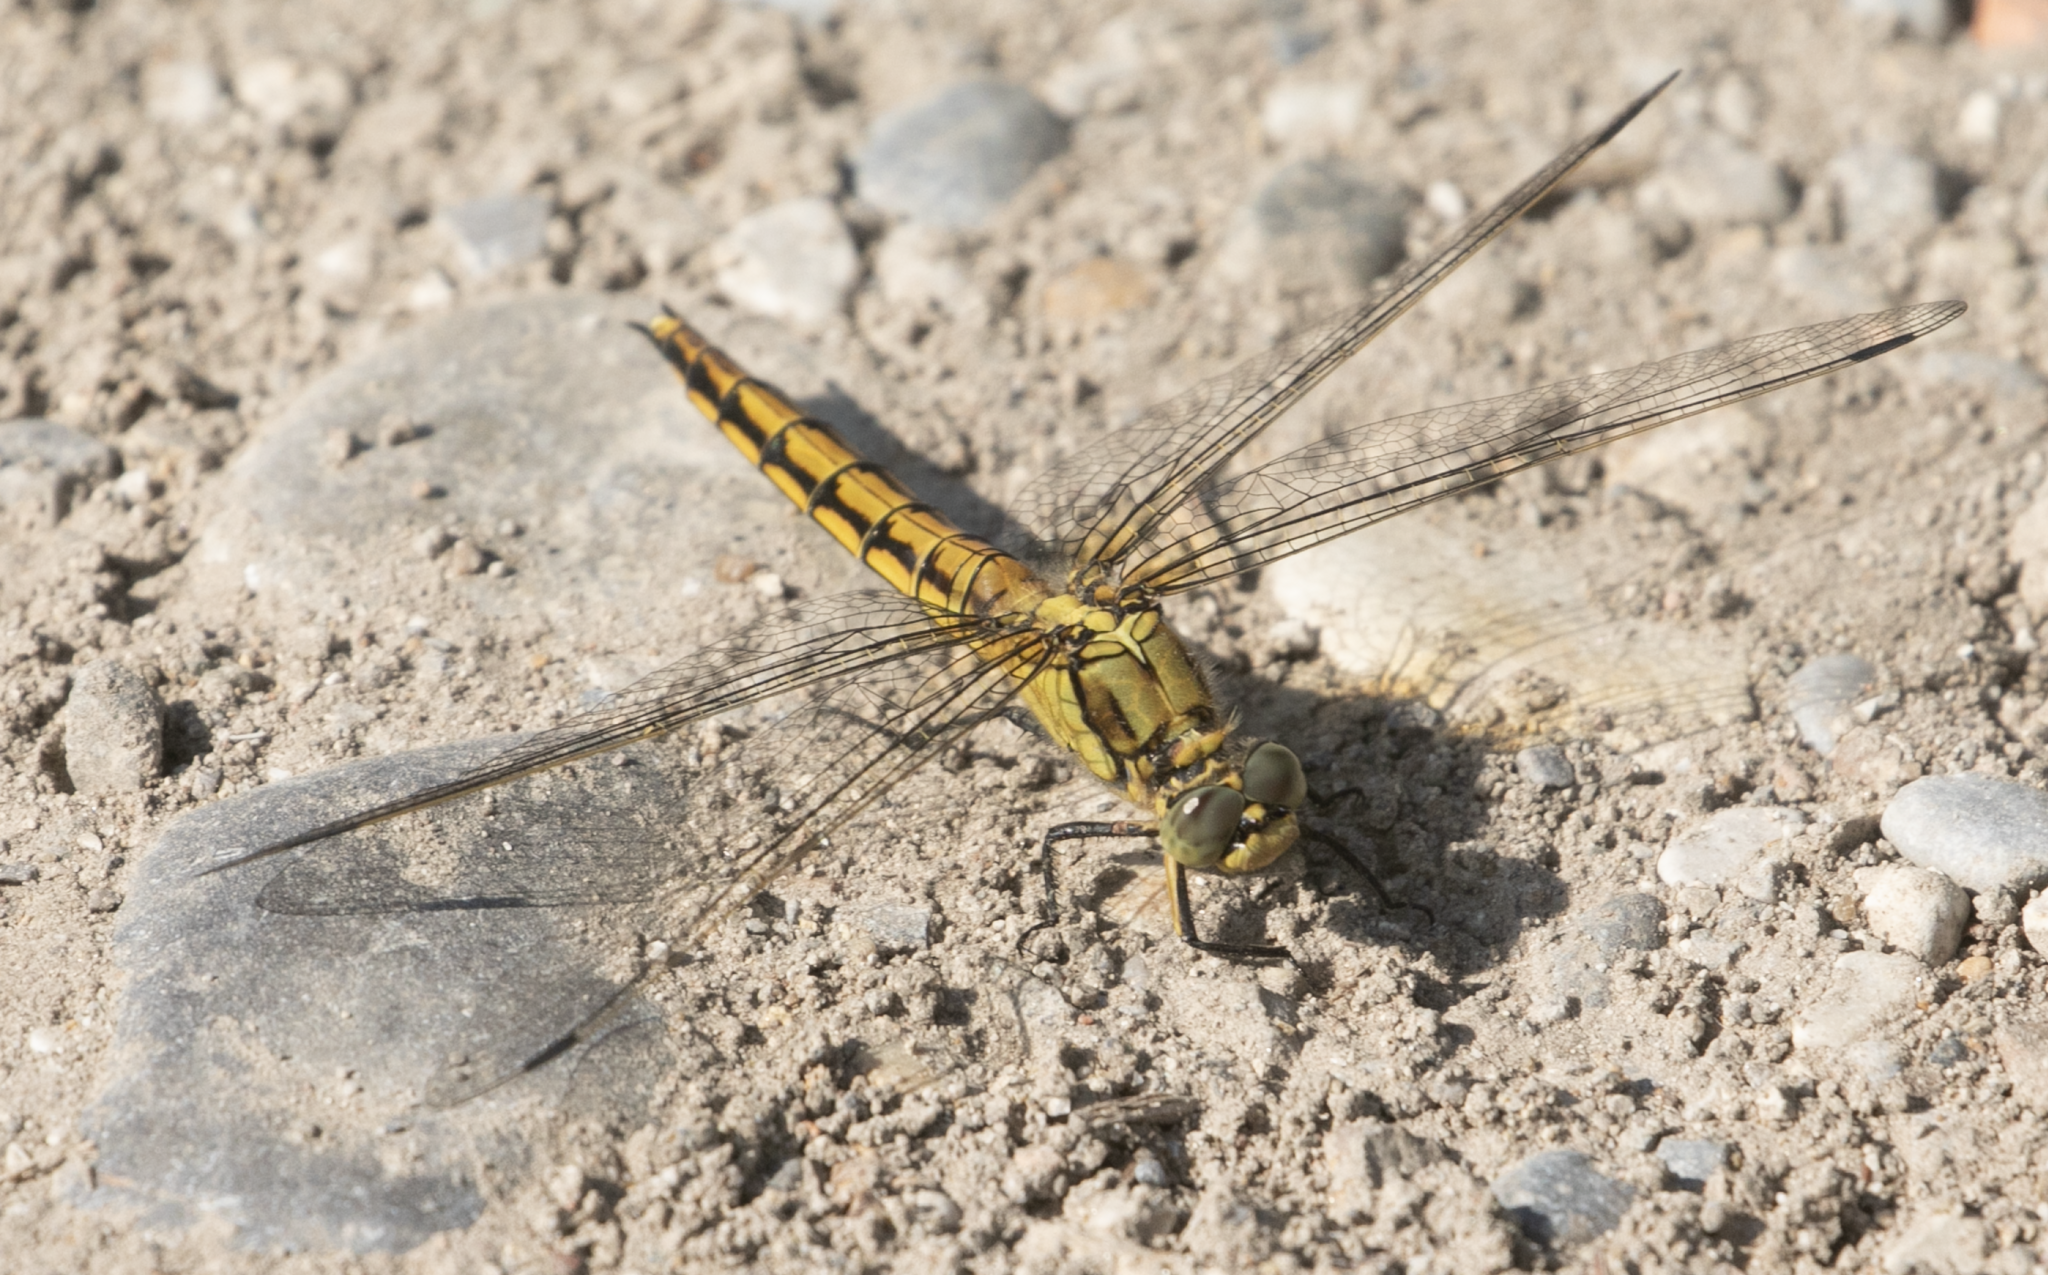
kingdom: Animalia
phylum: Arthropoda
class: Insecta
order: Odonata
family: Libellulidae
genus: Orthetrum
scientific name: Orthetrum cancellatum
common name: Black-tailed skimmer
